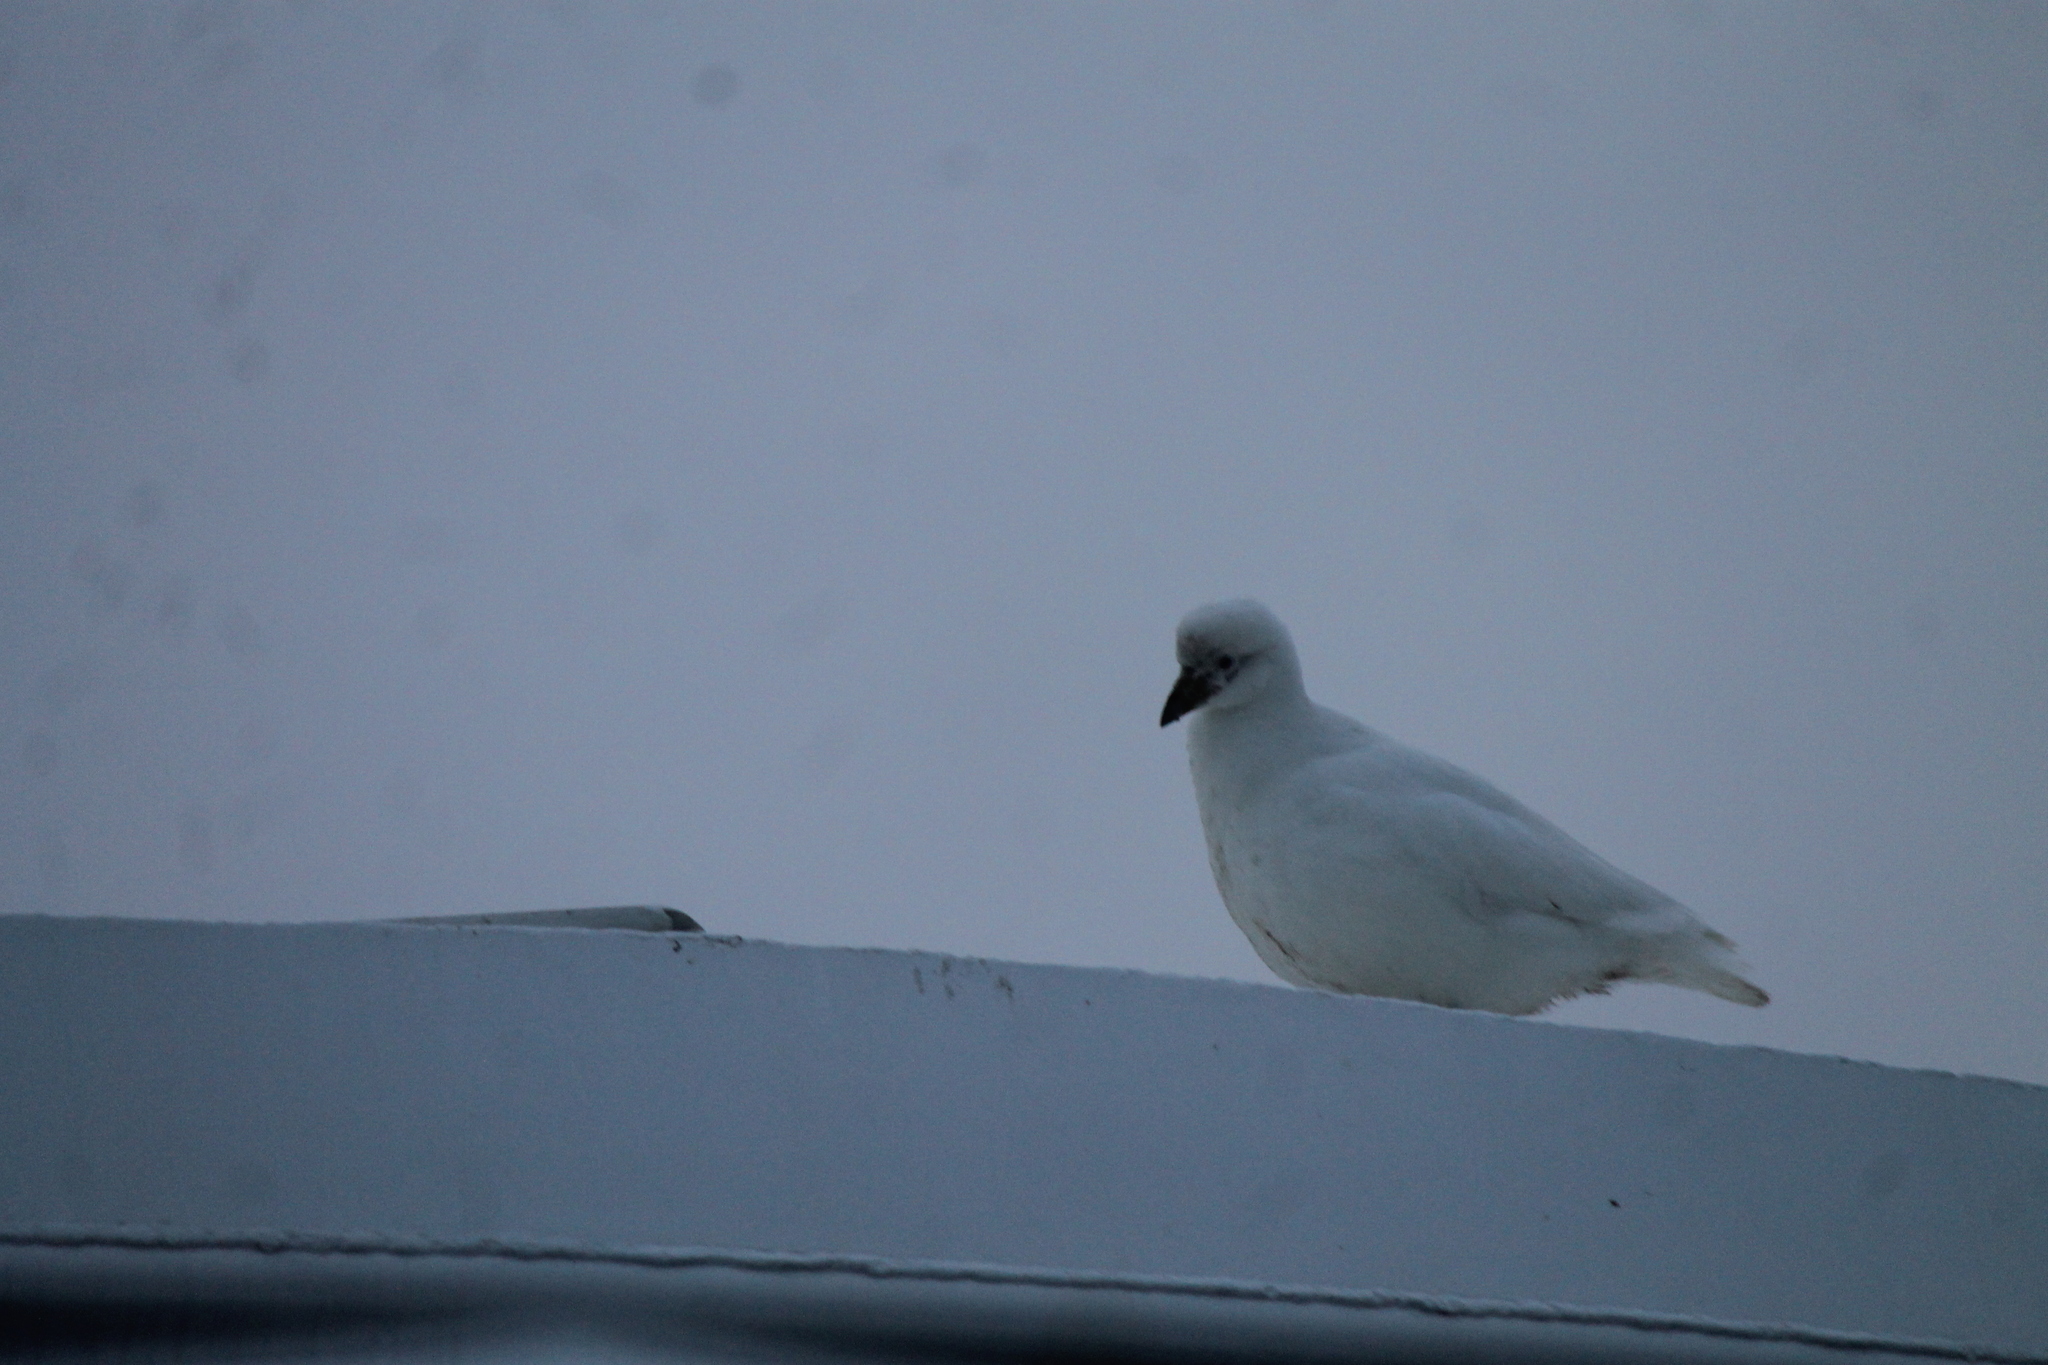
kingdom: Animalia
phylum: Chordata
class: Aves
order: Charadriiformes
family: Chionidae
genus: Chionis
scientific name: Chionis albus
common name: Snowy sheathbill
